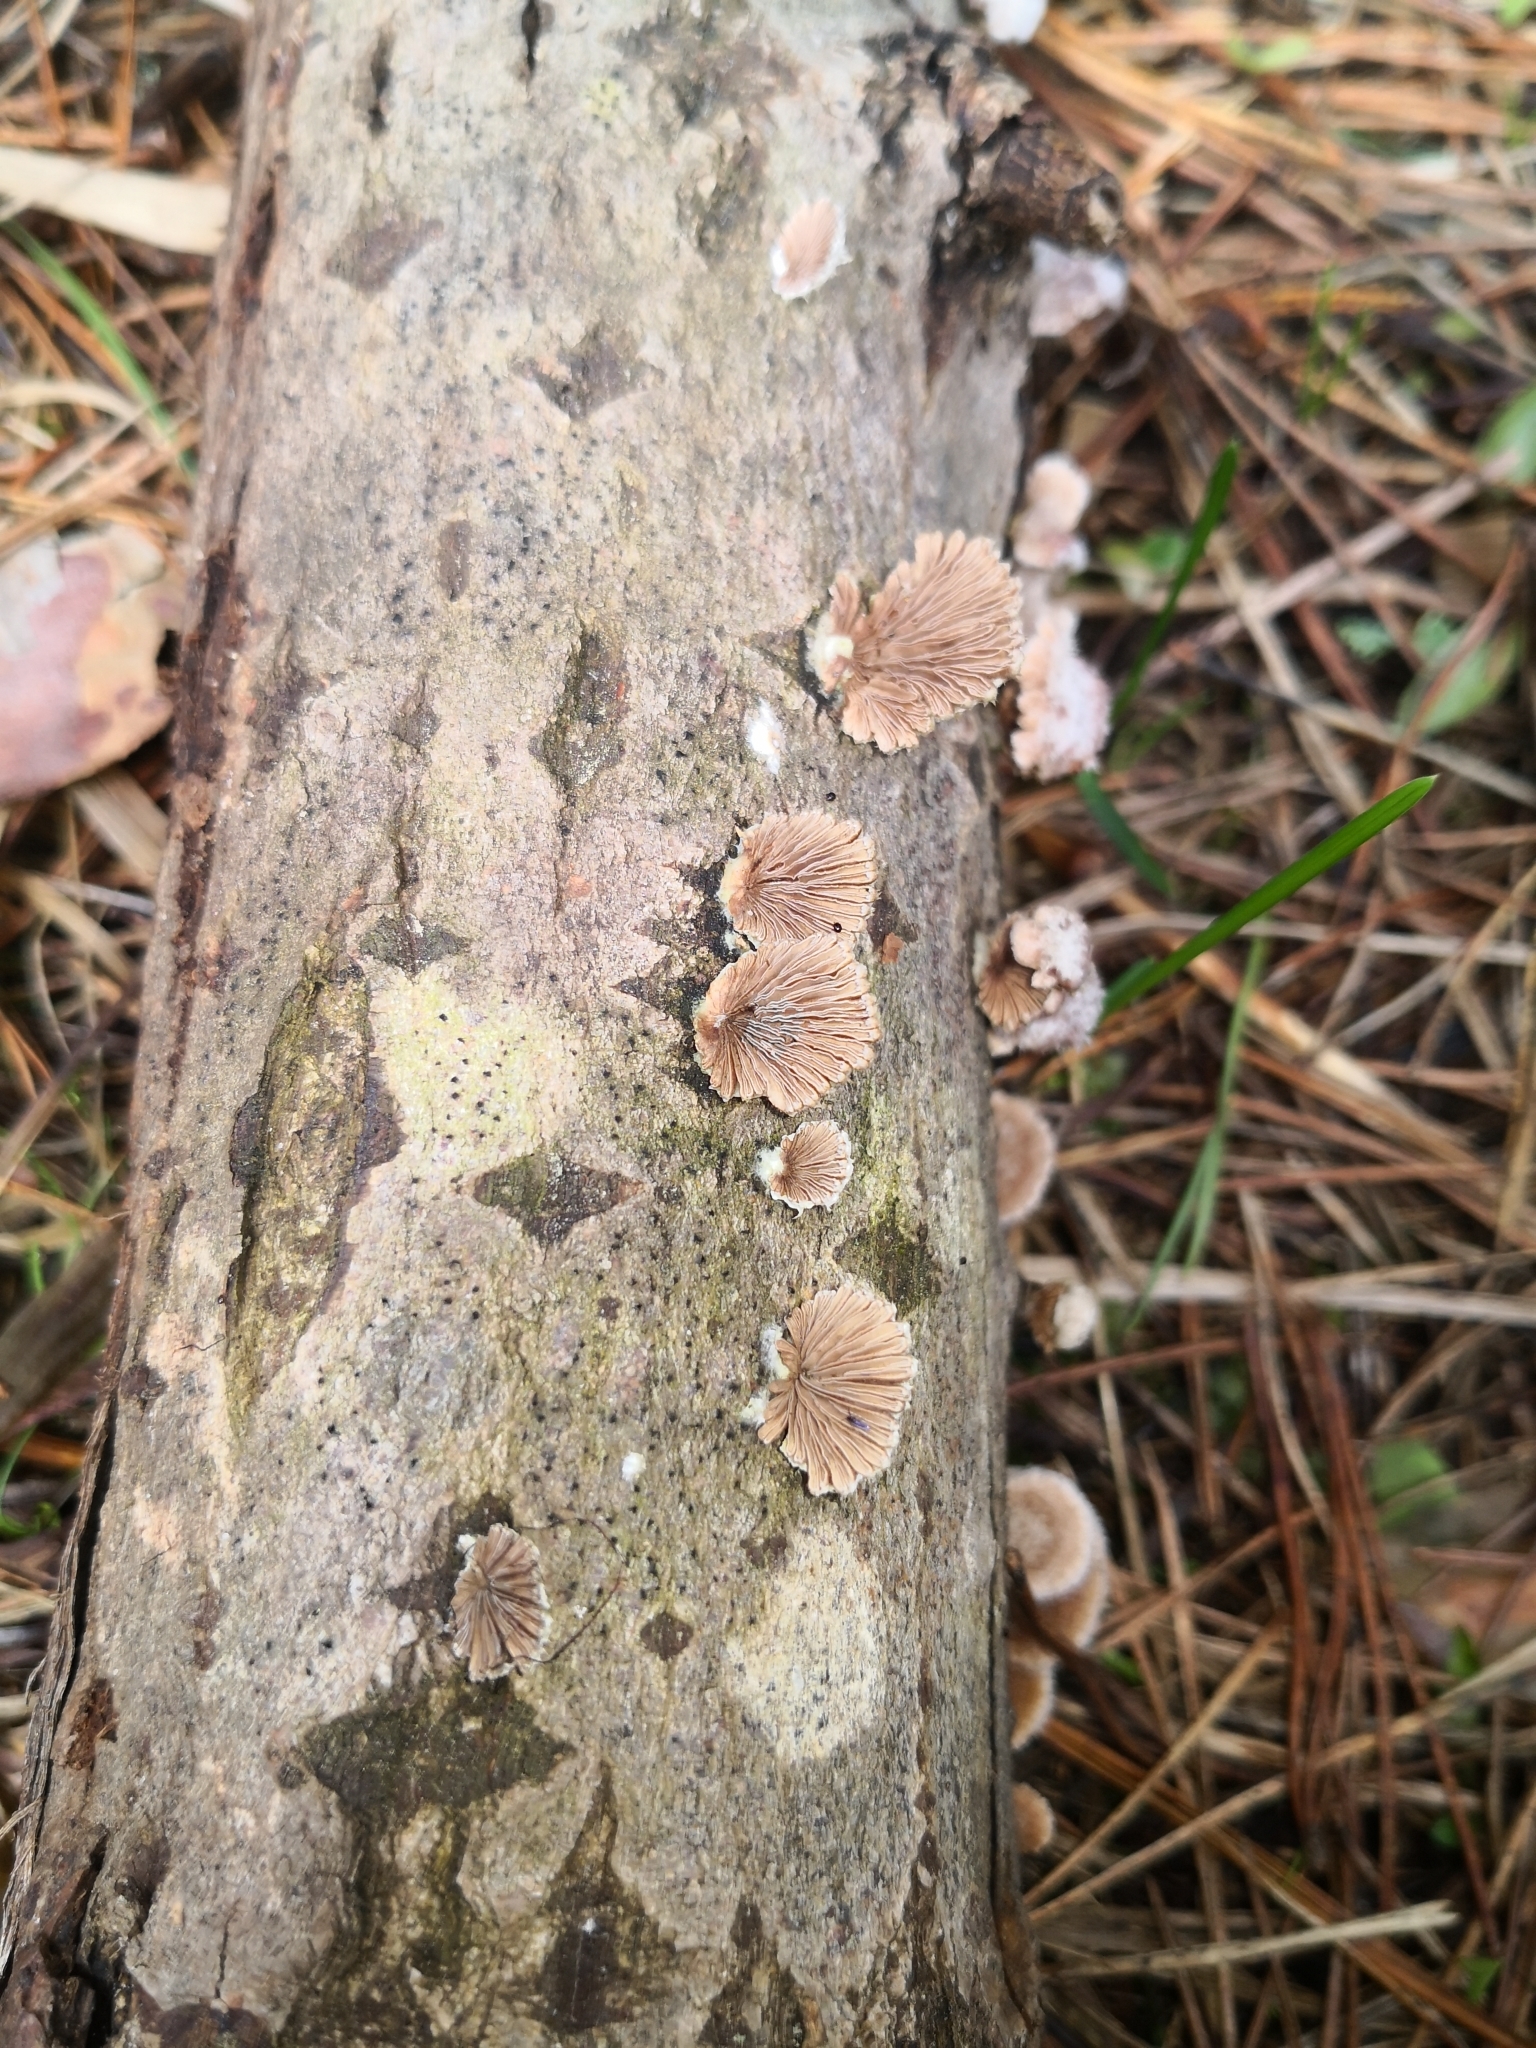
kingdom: Fungi
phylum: Basidiomycota
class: Agaricomycetes
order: Agaricales
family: Schizophyllaceae
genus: Schizophyllum
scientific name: Schizophyllum commune
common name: Common porecrust
